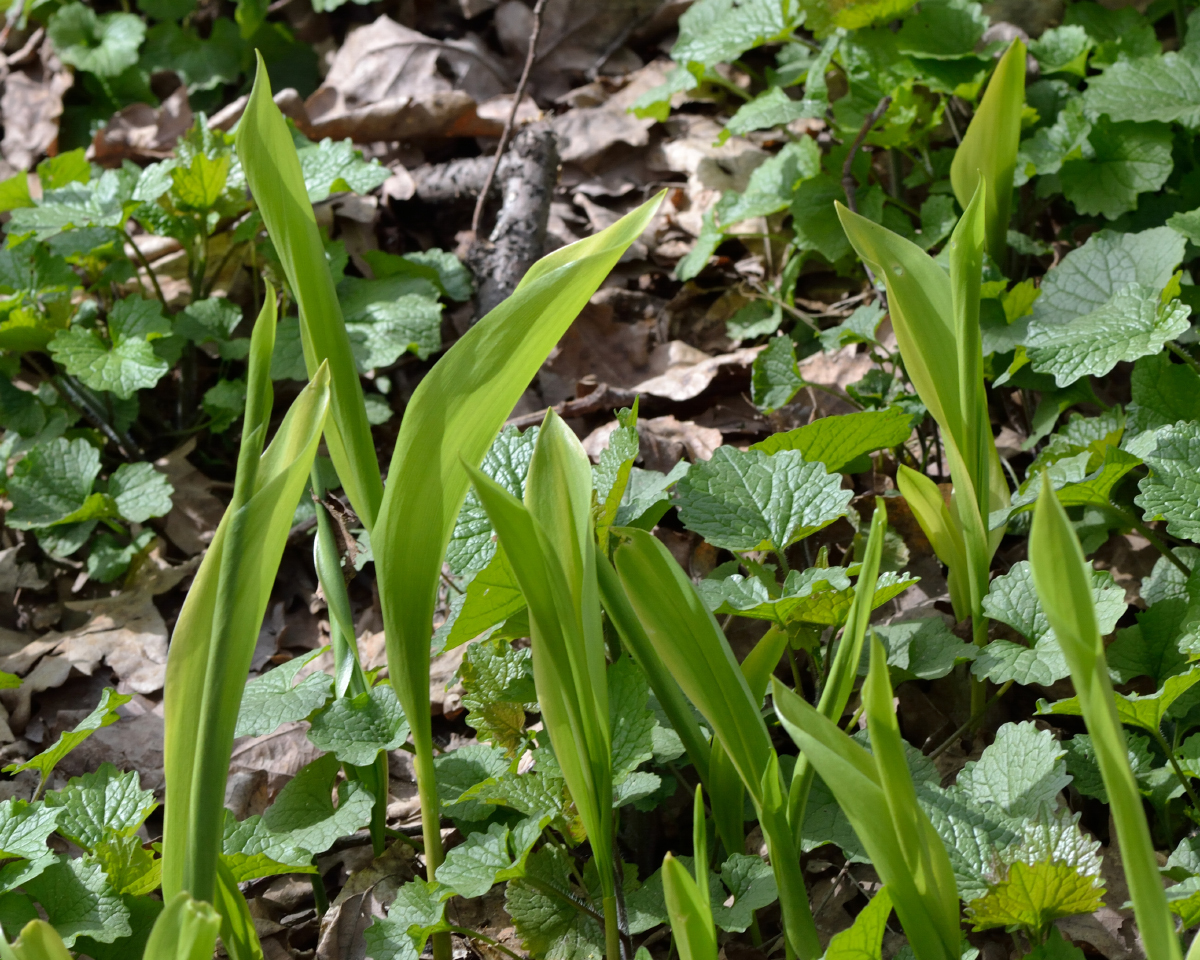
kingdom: Plantae
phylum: Tracheophyta
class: Liliopsida
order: Asparagales
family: Asparagaceae
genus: Convallaria
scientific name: Convallaria majalis
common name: Lily-of-the-valley
